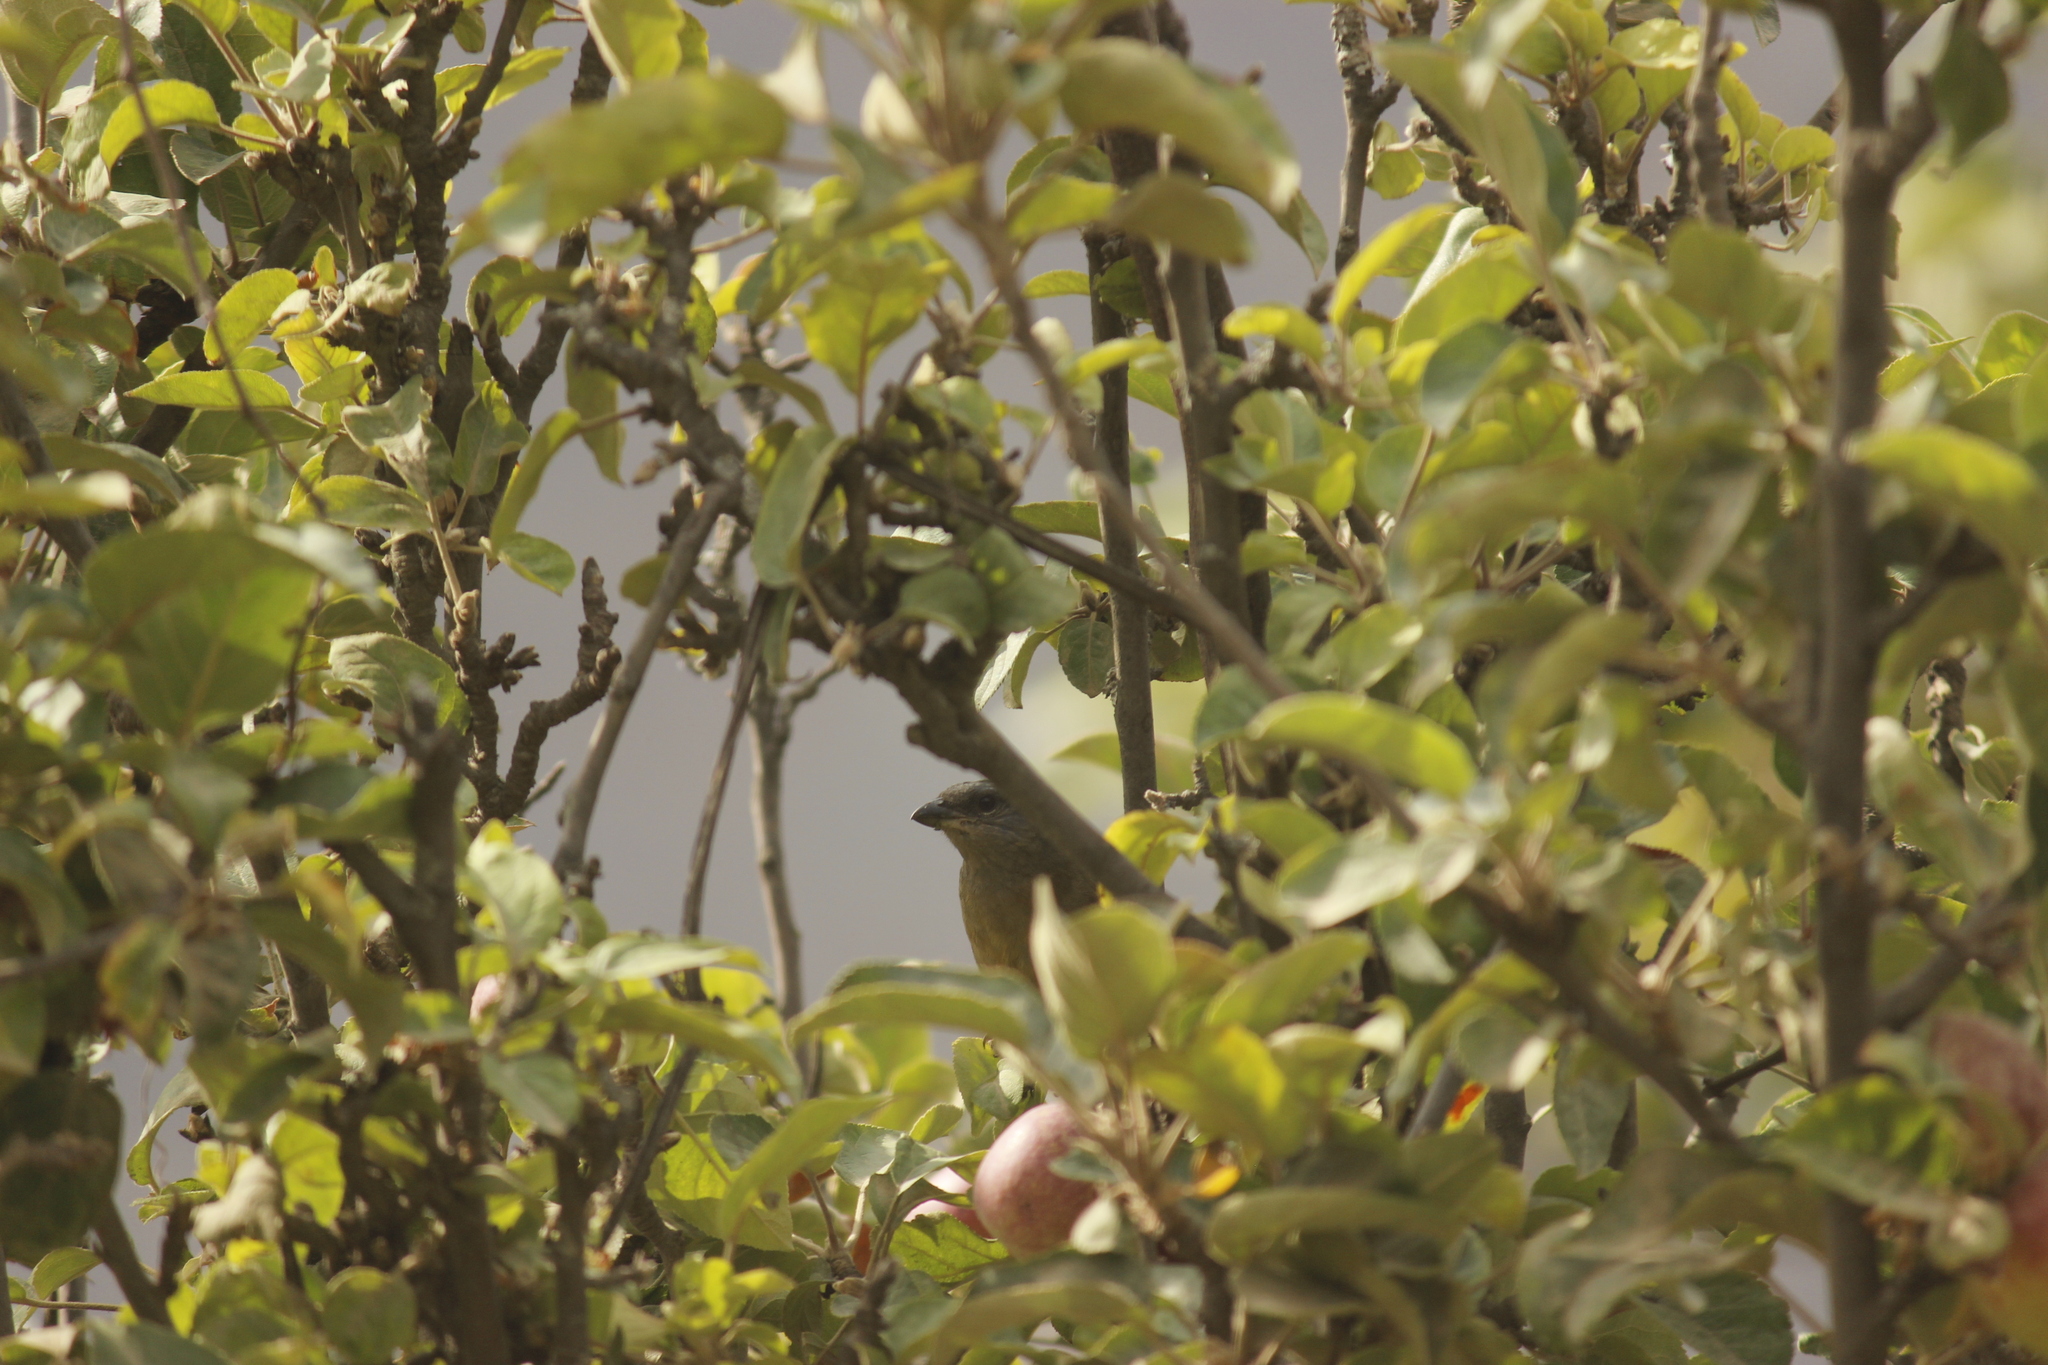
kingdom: Animalia
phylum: Chordata
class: Aves
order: Passeriformes
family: Thraupidae
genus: Rauenia
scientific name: Rauenia bonariensis
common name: Blue-and-yellow tanager
